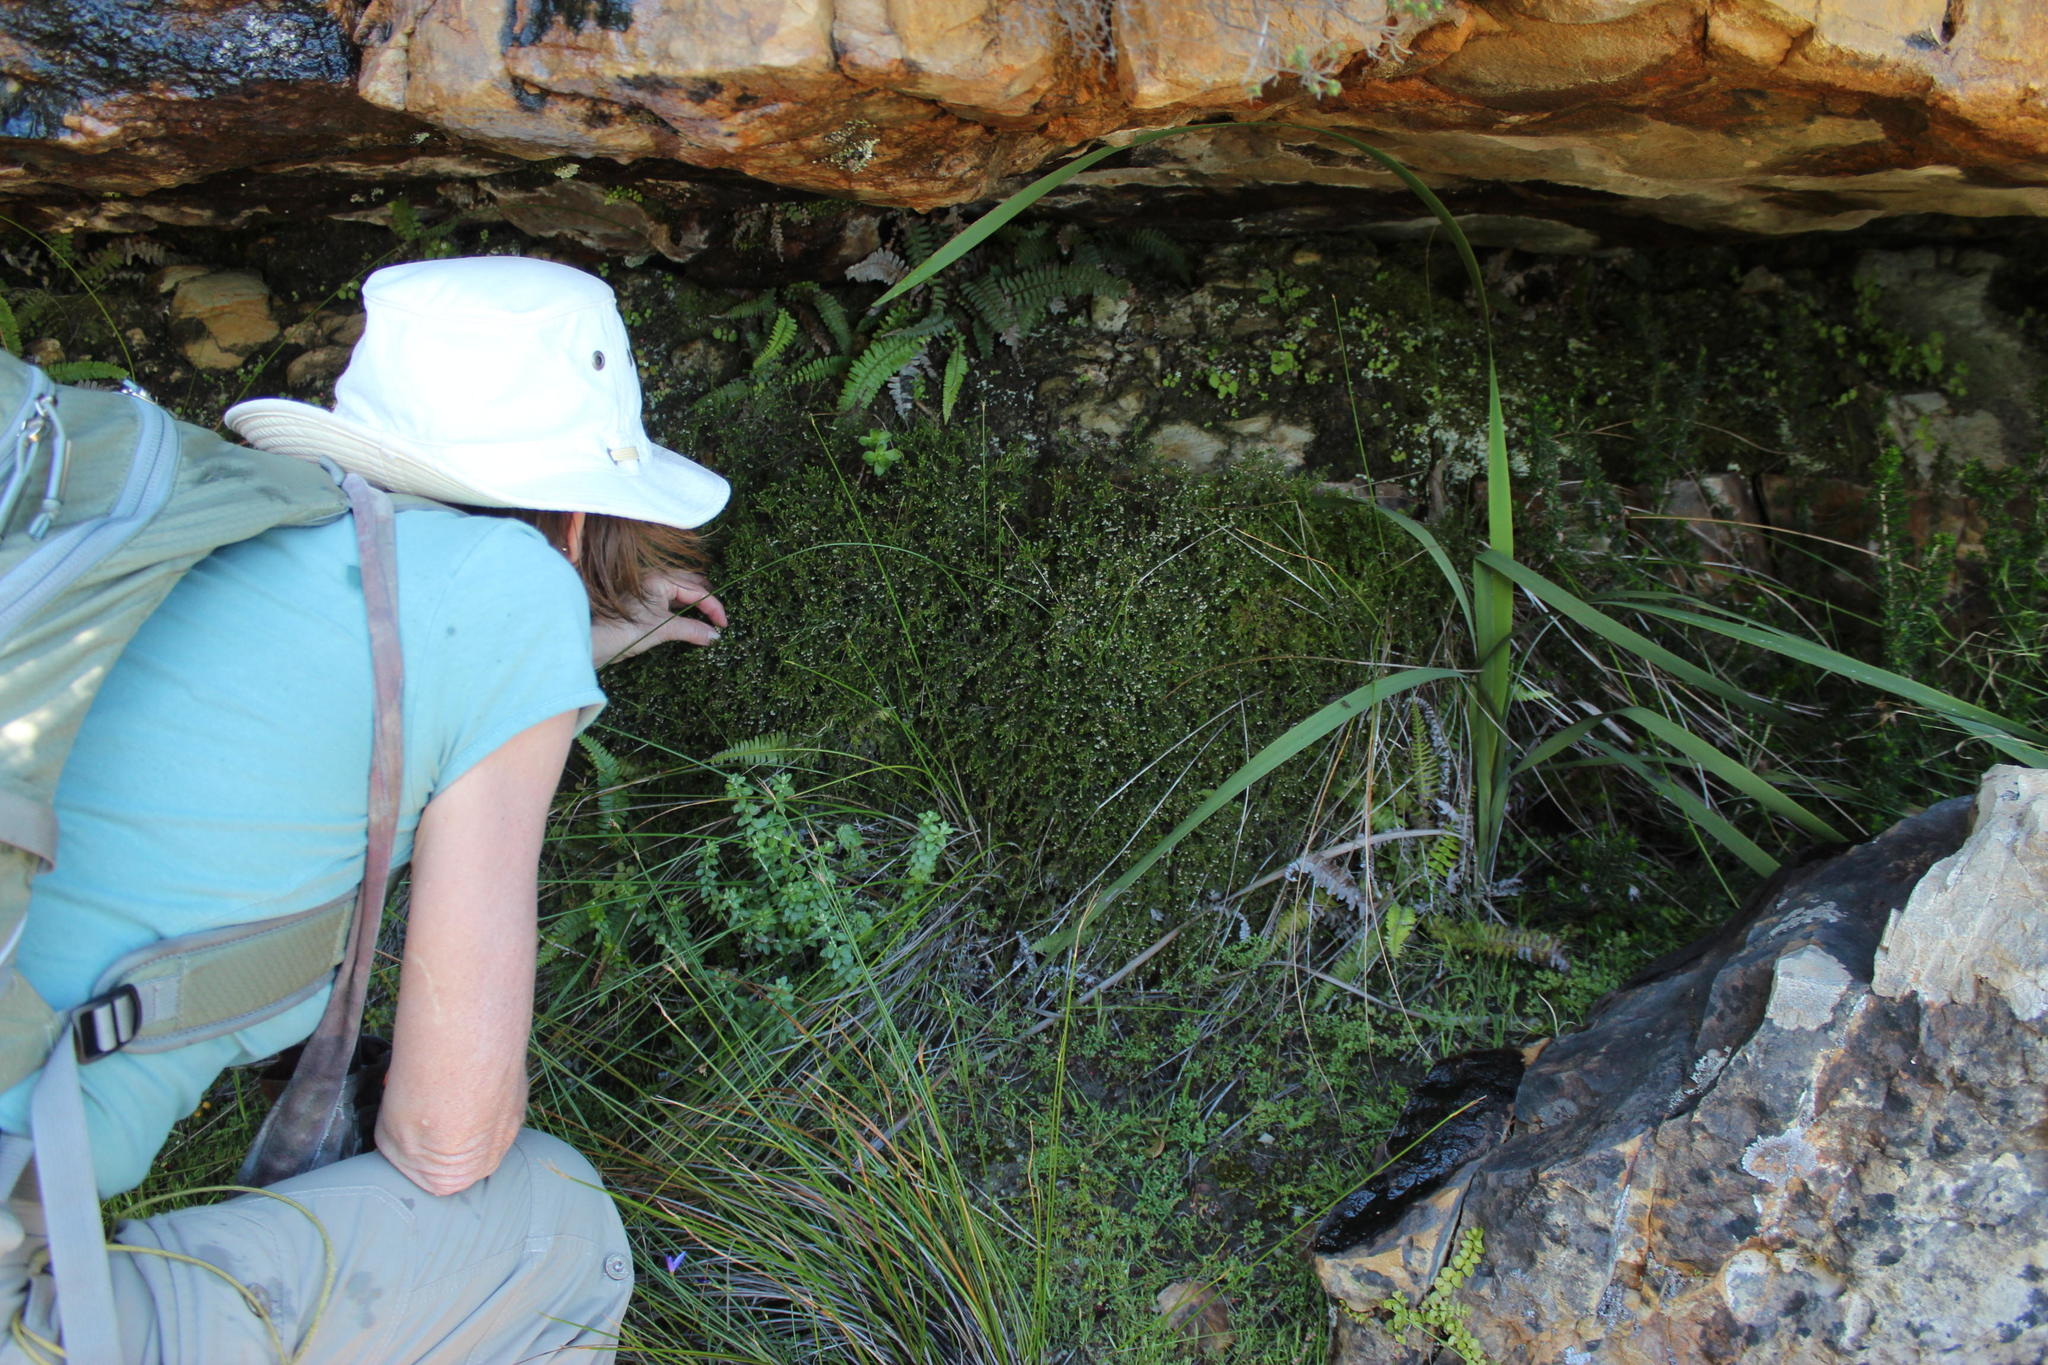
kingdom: Plantae
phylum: Tracheophyta
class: Magnoliopsida
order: Ericales
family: Ericaceae
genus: Erica
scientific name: Erica tenuis
